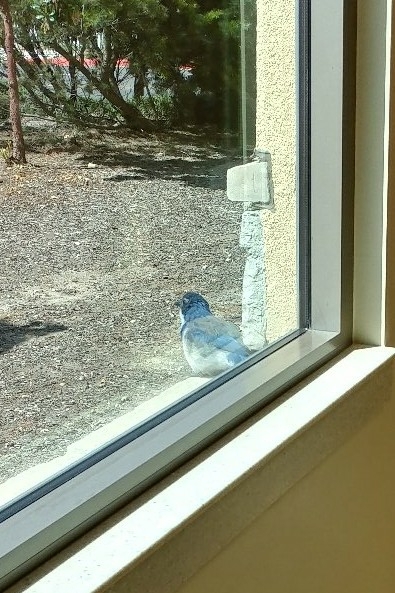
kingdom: Animalia
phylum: Chordata
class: Aves
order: Passeriformes
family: Corvidae
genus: Aphelocoma
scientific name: Aphelocoma californica
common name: California scrub-jay
